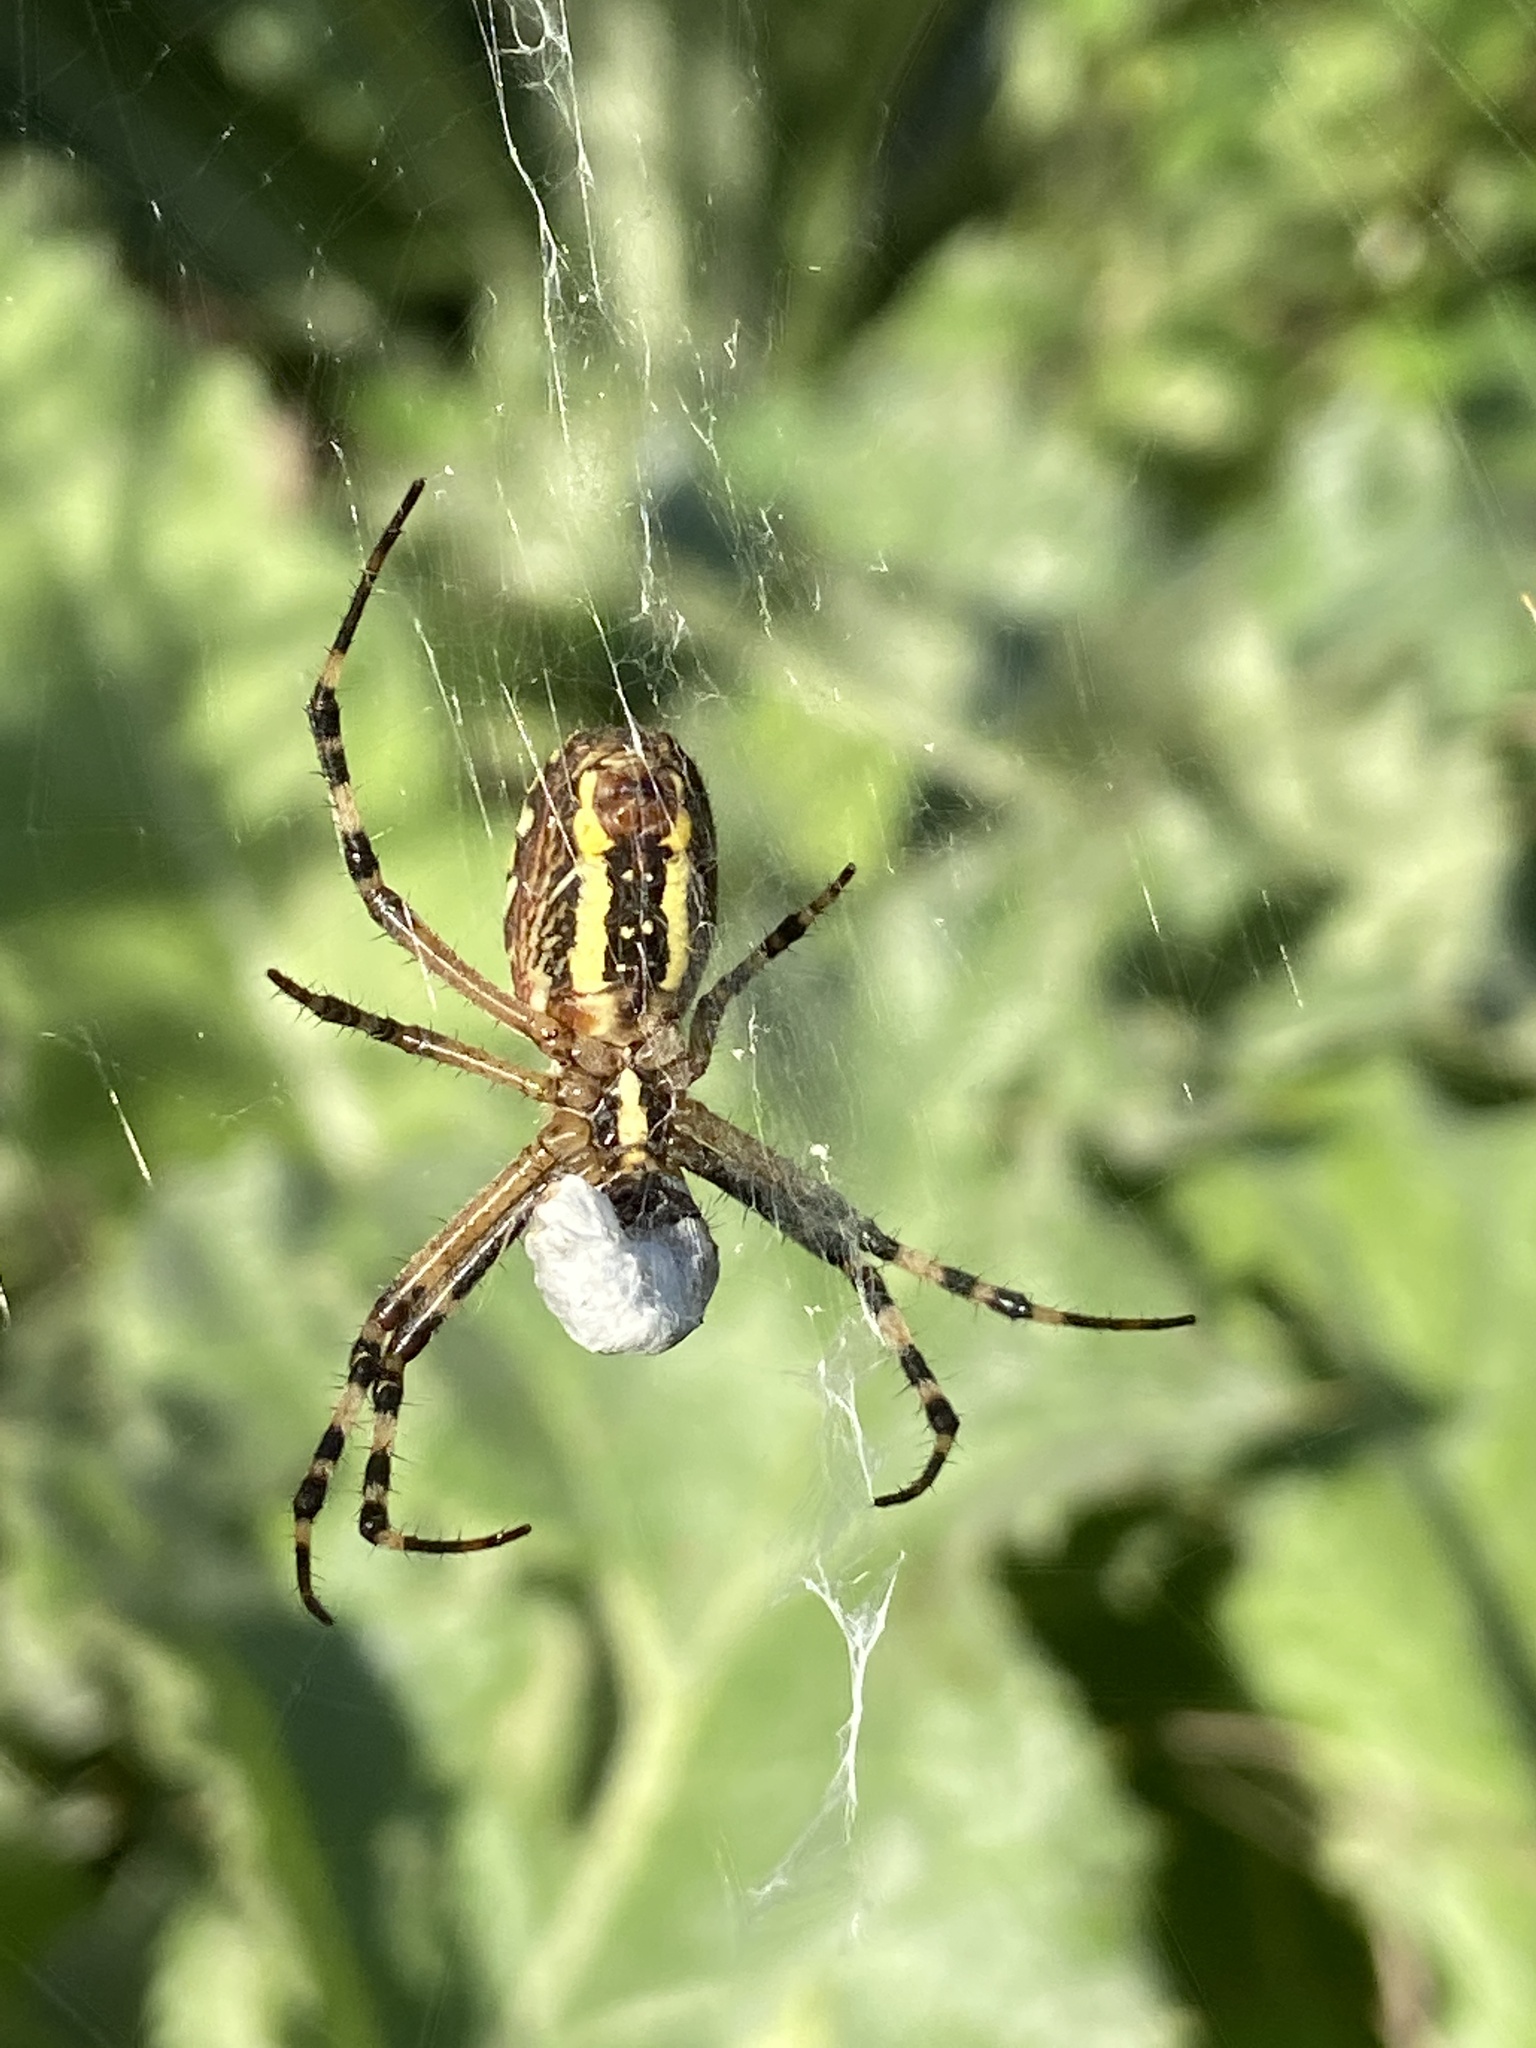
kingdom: Animalia
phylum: Arthropoda
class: Arachnida
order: Araneae
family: Araneidae
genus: Argiope
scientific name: Argiope bruennichi
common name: Wasp spider
